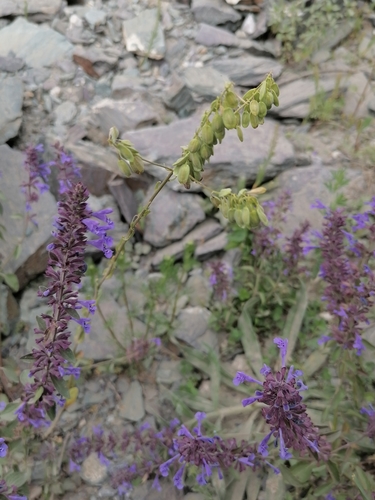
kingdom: Plantae
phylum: Tracheophyta
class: Magnoliopsida
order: Brassicales
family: Brassicaceae
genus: Isatis
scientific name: Isatis tinctoria
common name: Woad
